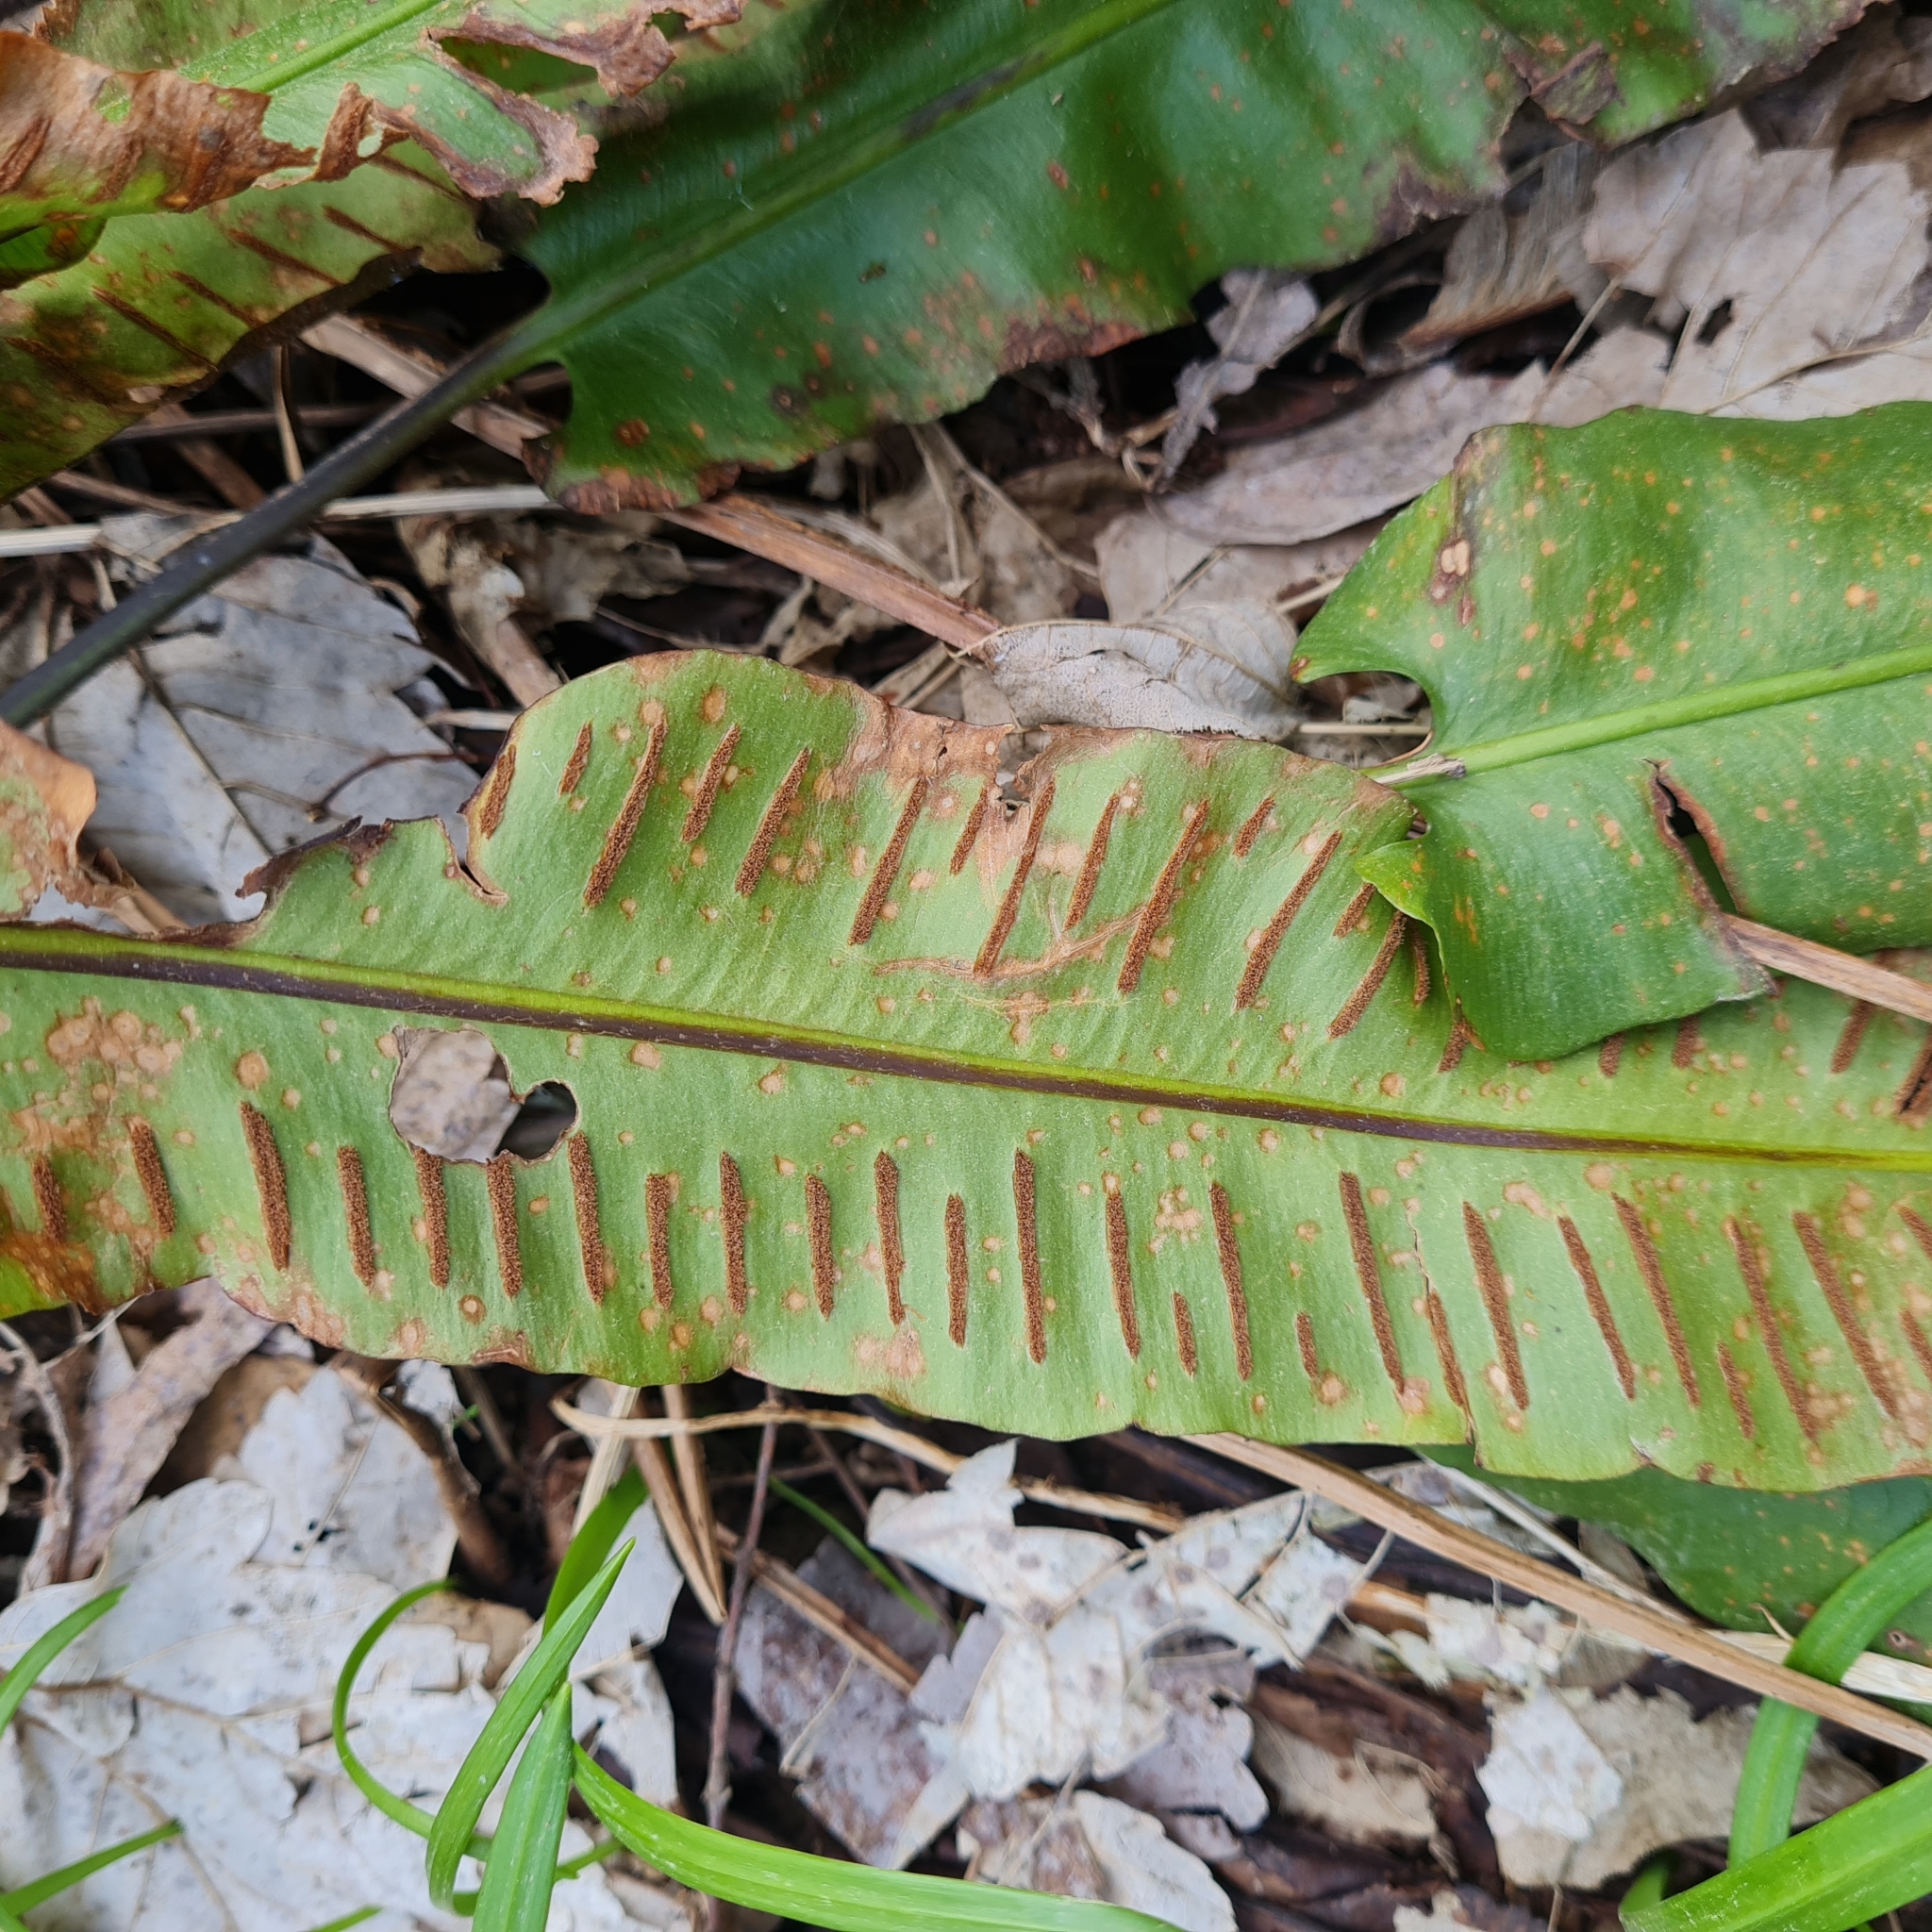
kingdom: Plantae
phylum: Tracheophyta
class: Polypodiopsida
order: Polypodiales
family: Aspleniaceae
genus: Asplenium
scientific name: Asplenium scolopendrium
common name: Hart's-tongue fern
